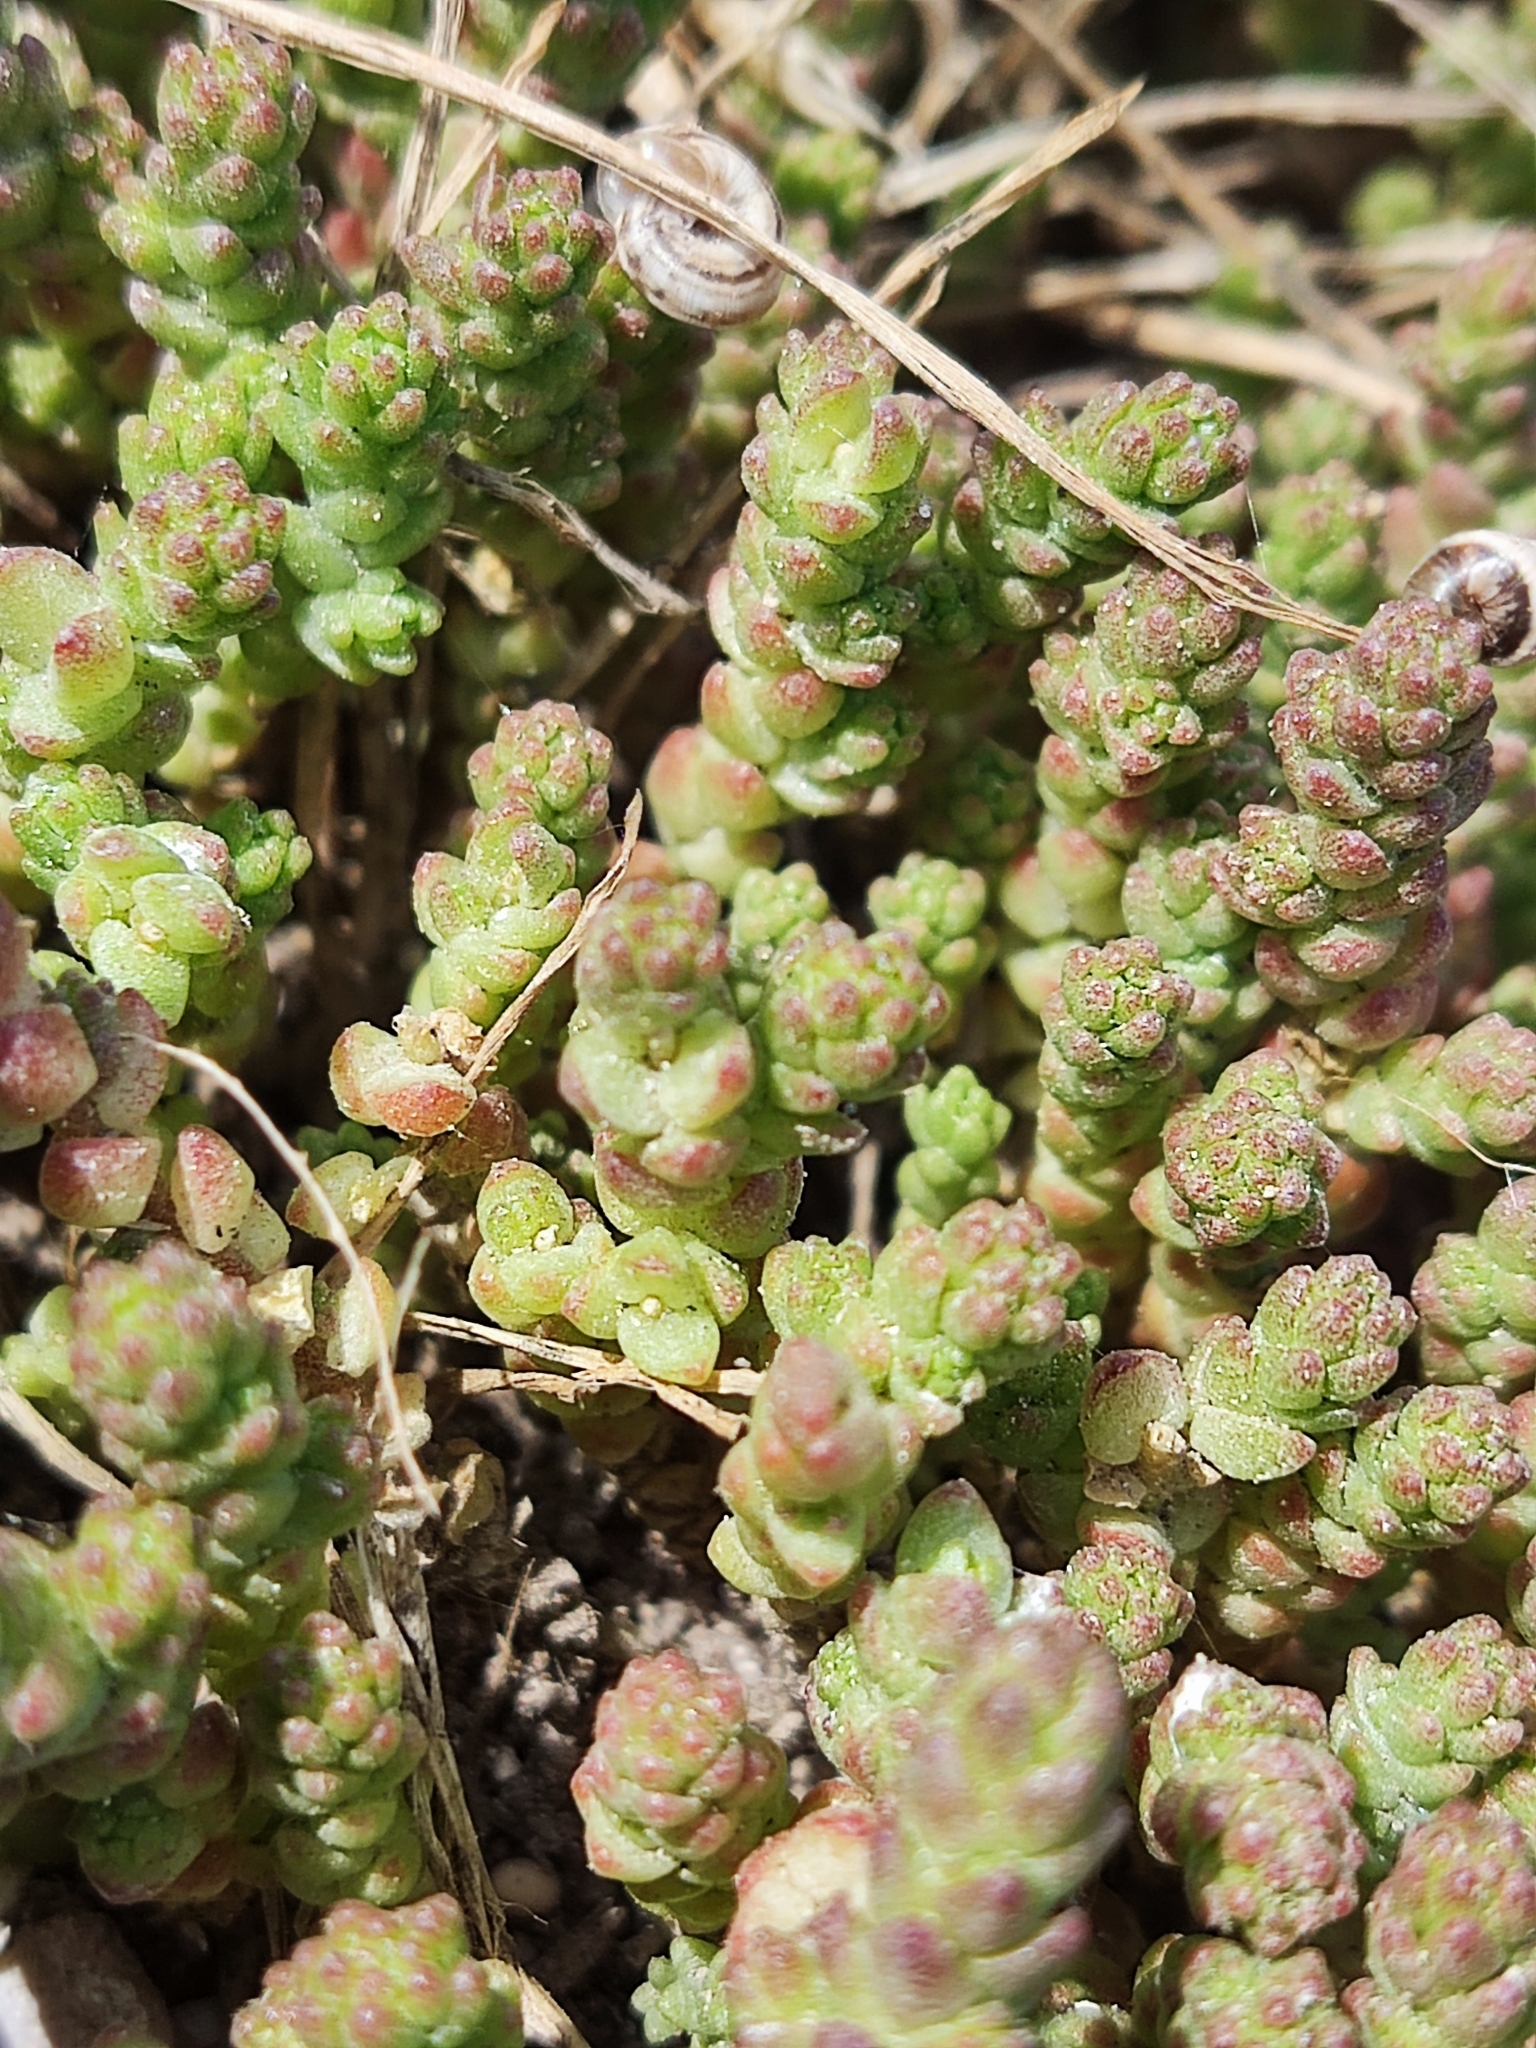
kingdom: Plantae
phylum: Tracheophyta
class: Magnoliopsida
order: Saxifragales
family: Crassulaceae
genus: Sedum
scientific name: Sedum acre
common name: Biting stonecrop
